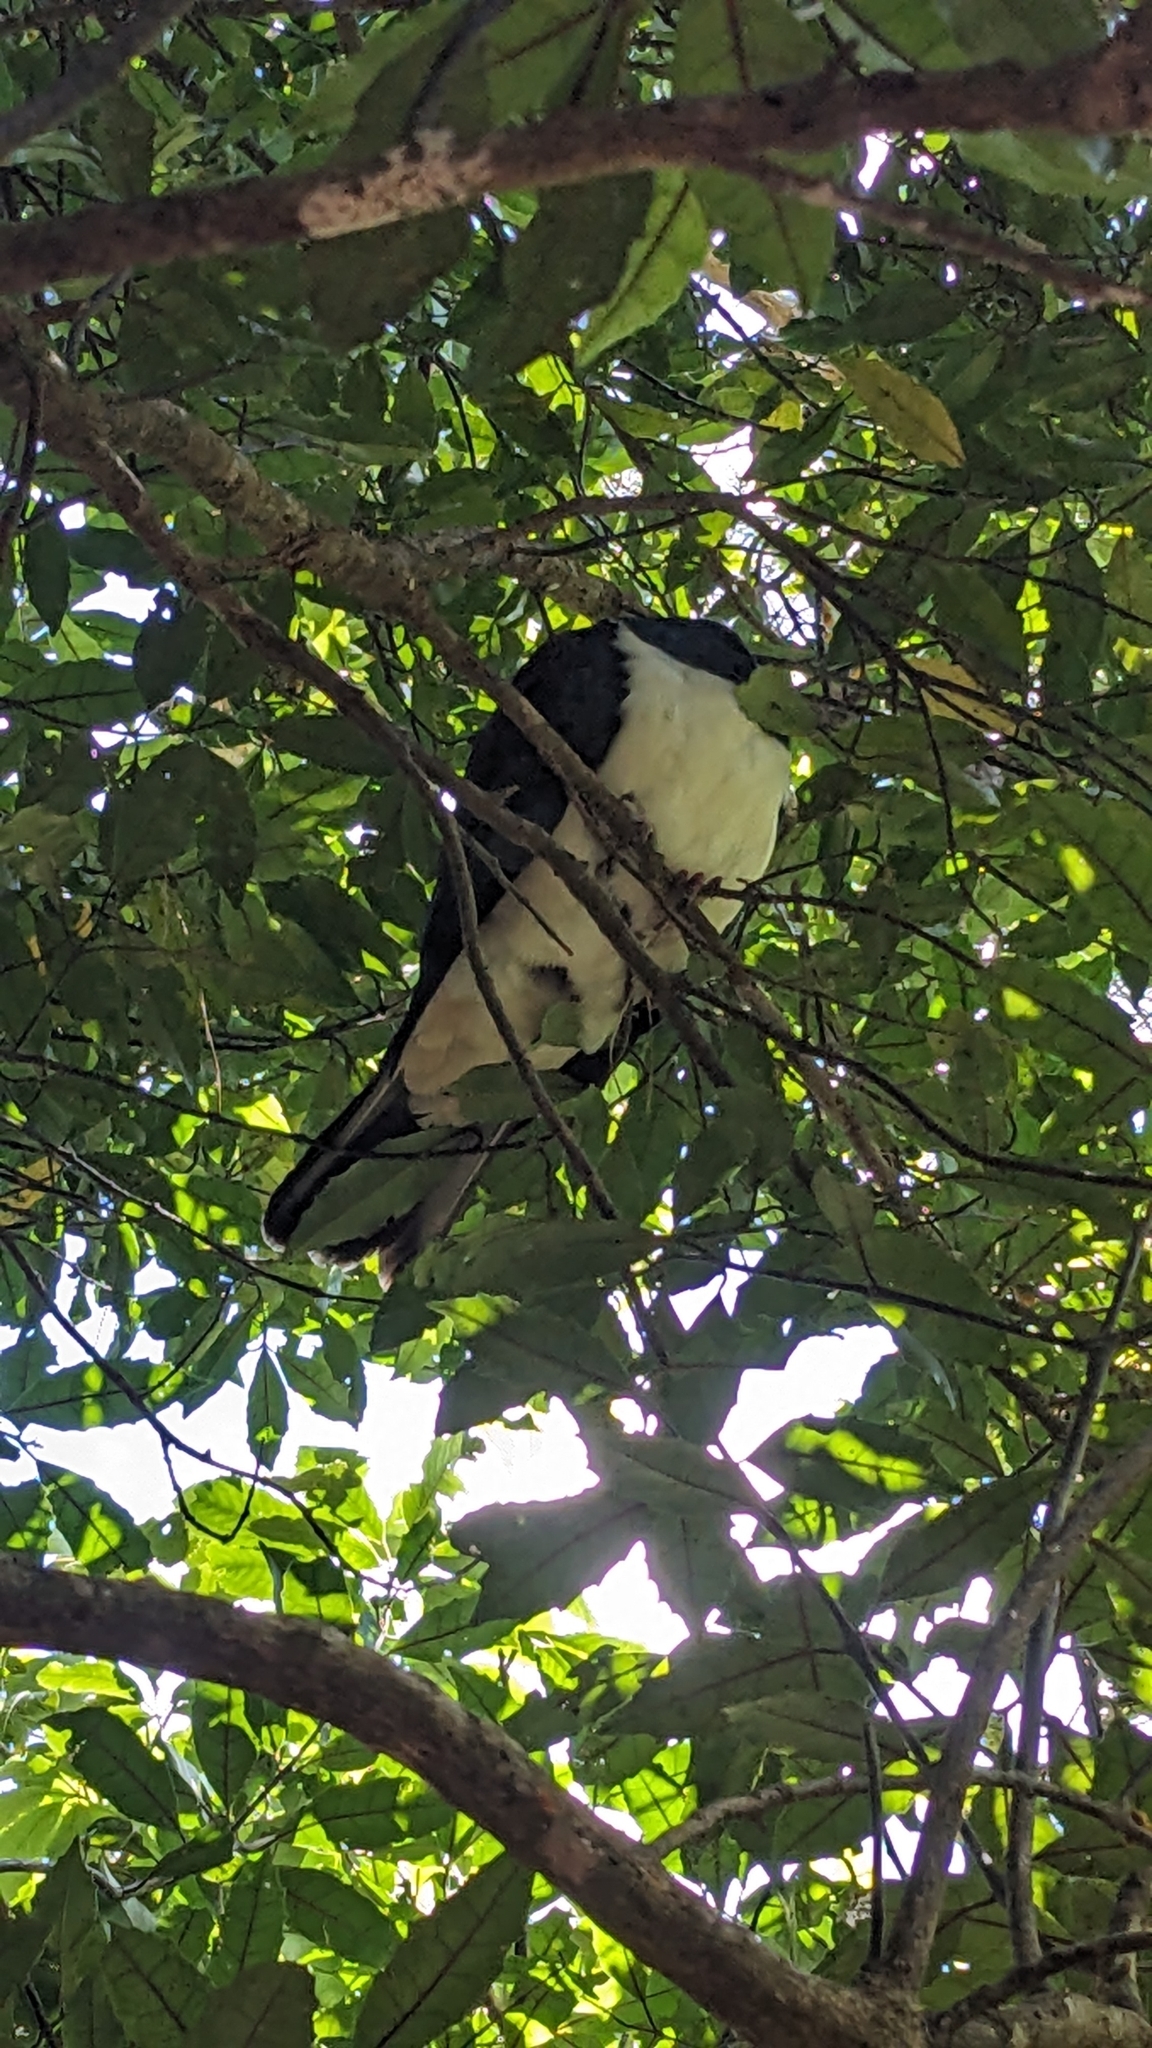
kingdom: Animalia
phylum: Chordata
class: Aves
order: Columbiformes
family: Columbidae
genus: Hemiphaga
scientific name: Hemiphaga novaeseelandiae
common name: New zealand pigeon
